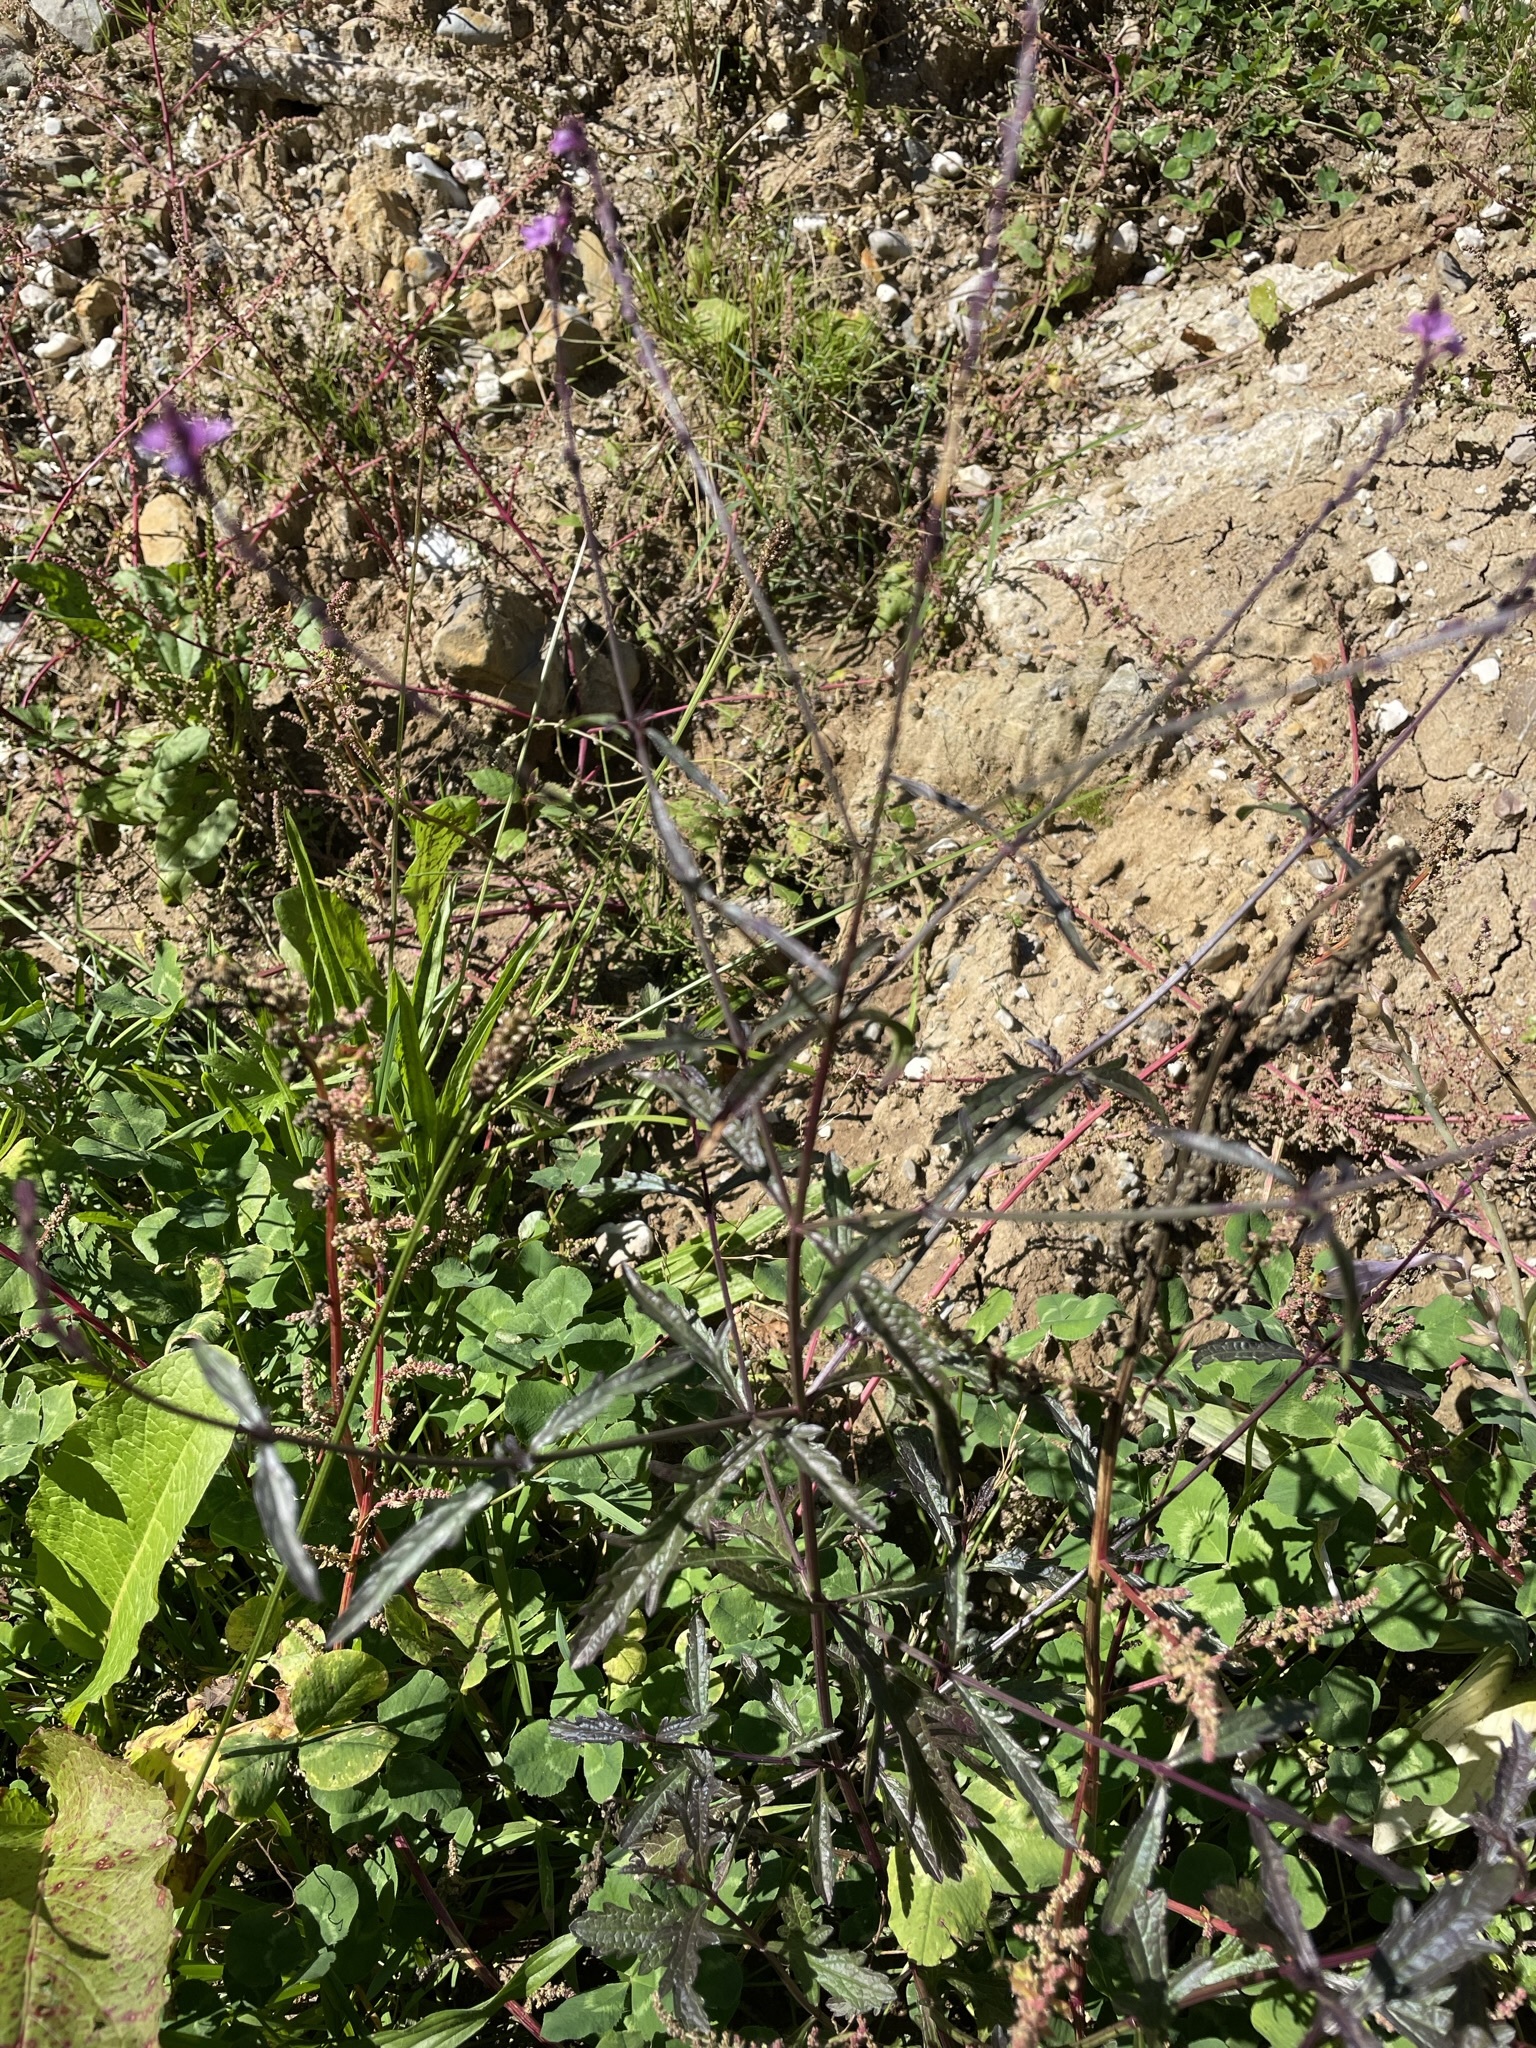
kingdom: Plantae
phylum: Tracheophyta
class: Magnoliopsida
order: Lamiales
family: Verbenaceae
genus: Verbena
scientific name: Verbena officinalis
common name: Vervain
